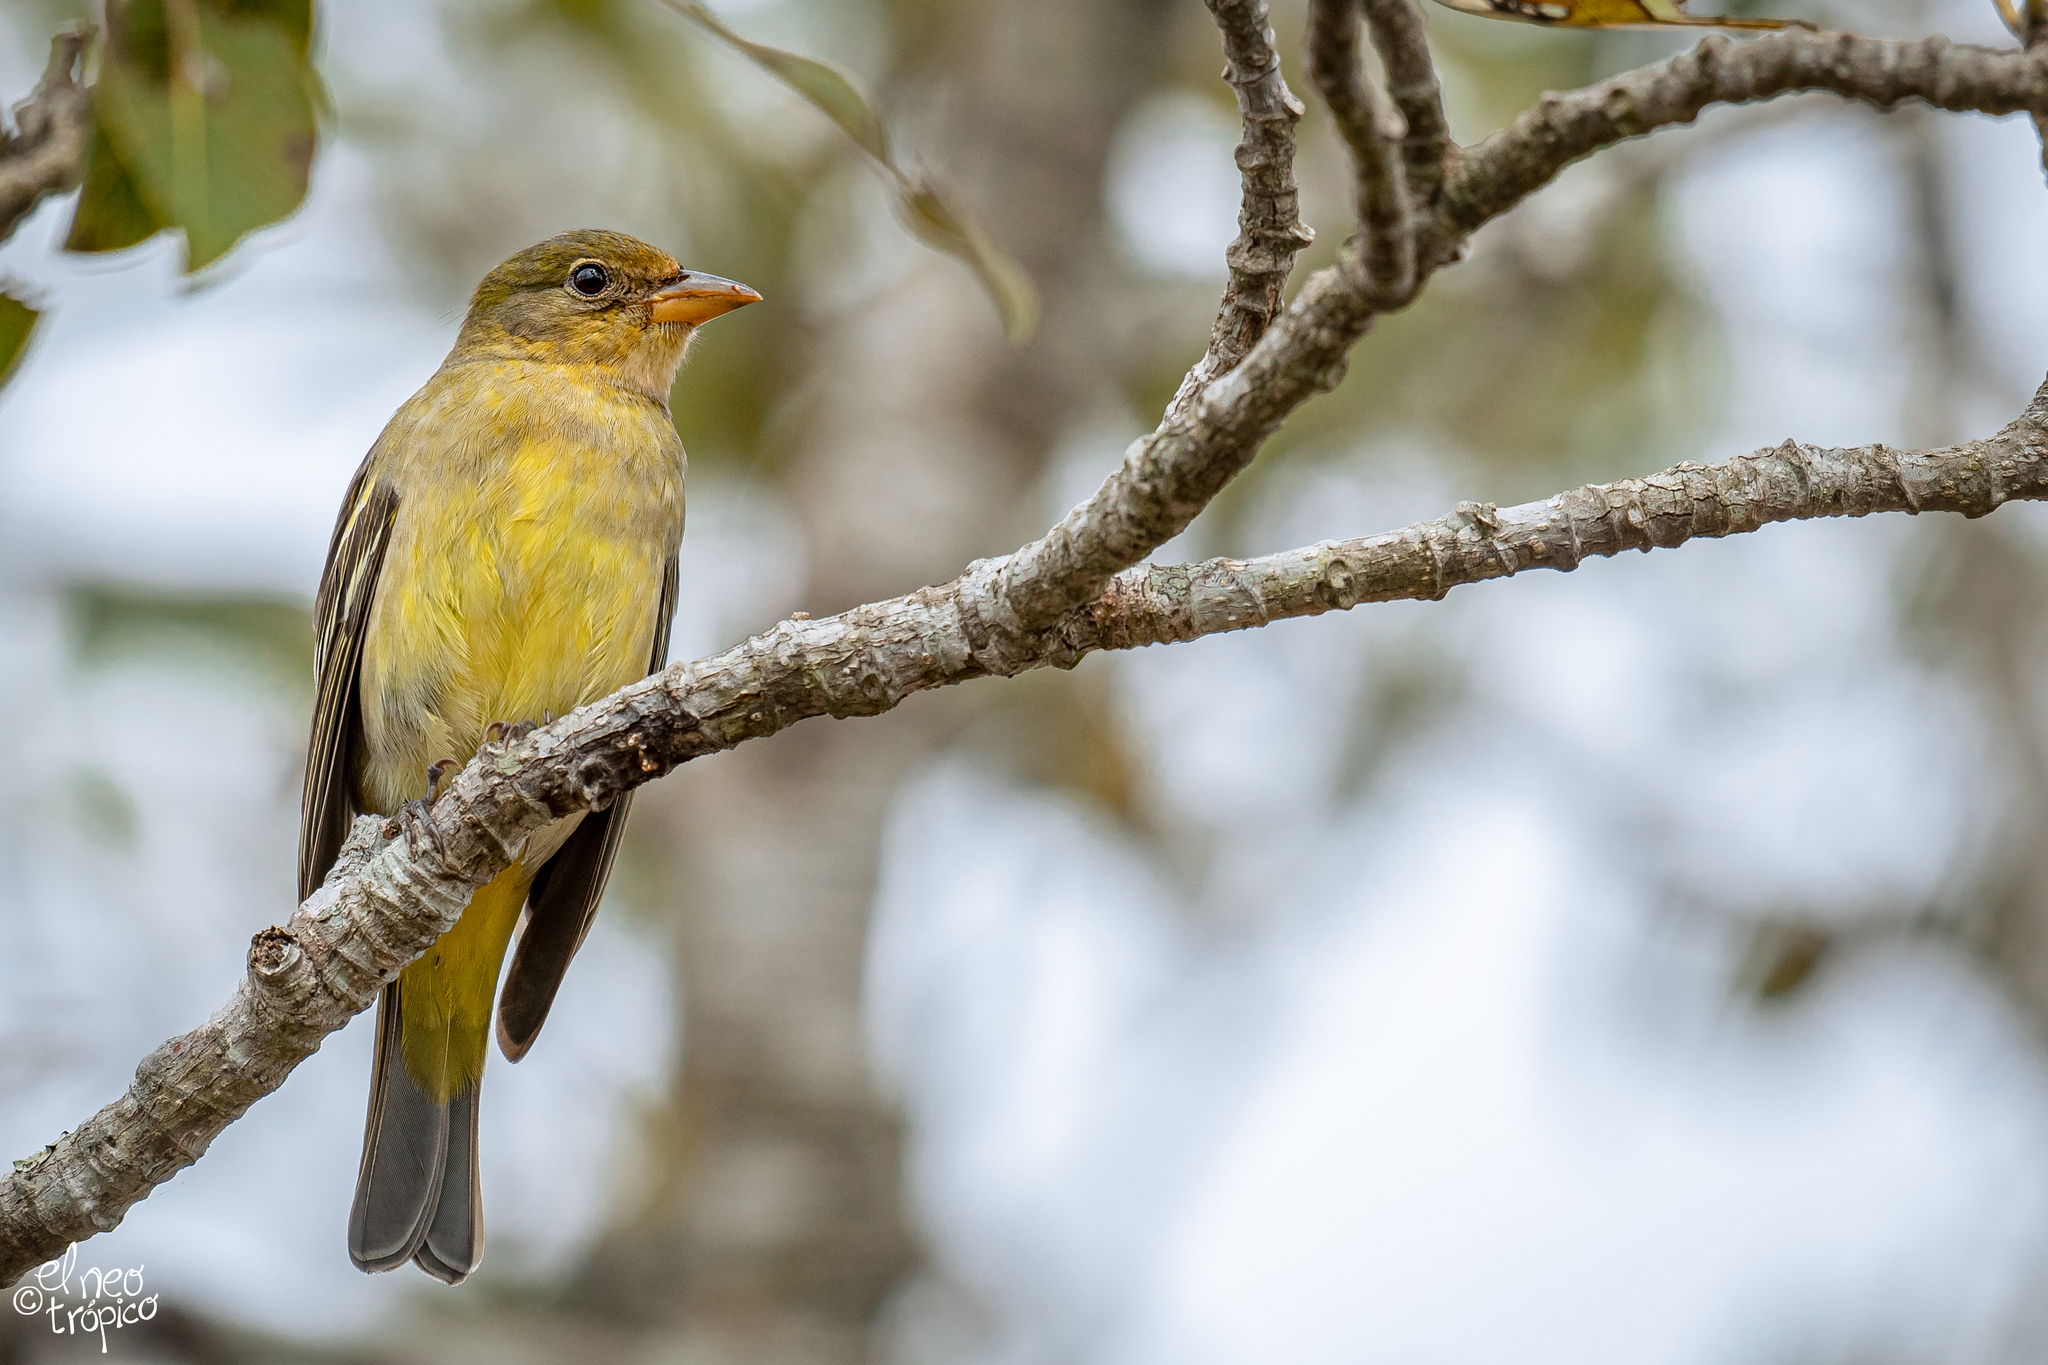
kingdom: Animalia
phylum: Chordata
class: Aves
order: Passeriformes
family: Cardinalidae
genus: Piranga
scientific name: Piranga ludoviciana
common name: Western tanager
